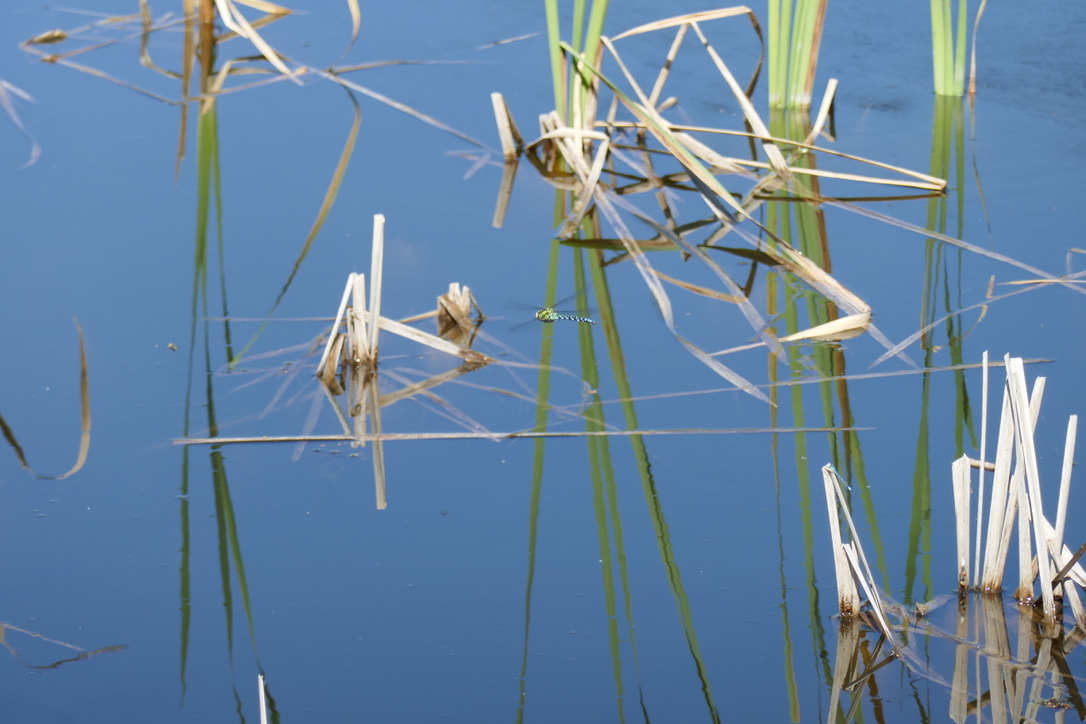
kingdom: Animalia
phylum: Arthropoda
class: Insecta
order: Odonata
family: Aeshnidae
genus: Aeshna
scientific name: Aeshna cyanea
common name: Southern hawker
